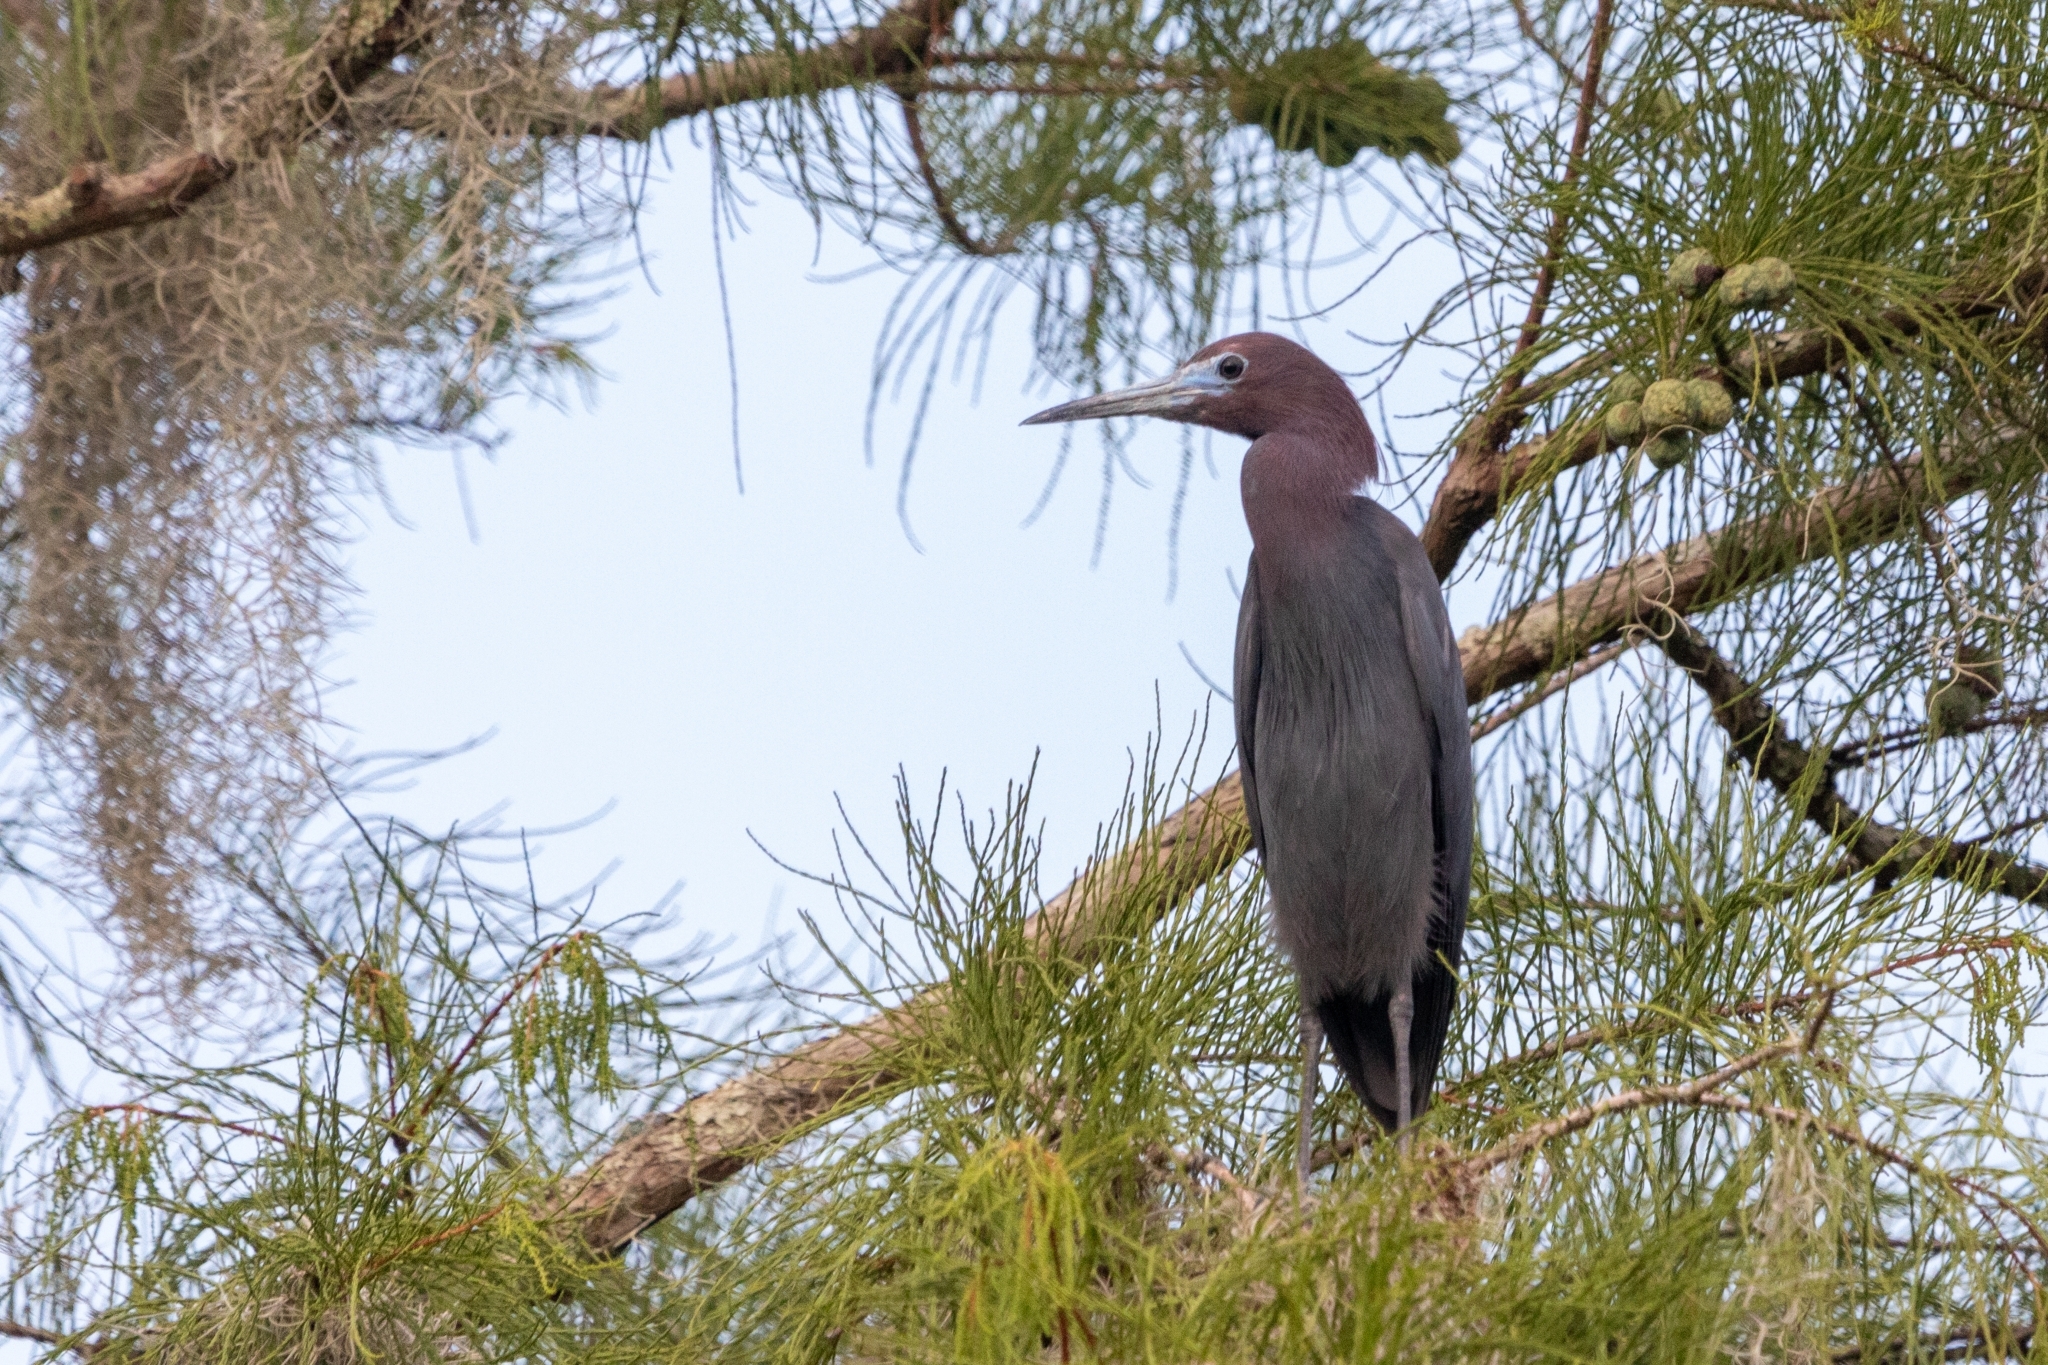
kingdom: Animalia
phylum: Chordata
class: Aves
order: Pelecaniformes
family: Ardeidae
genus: Egretta
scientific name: Egretta caerulea
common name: Little blue heron
